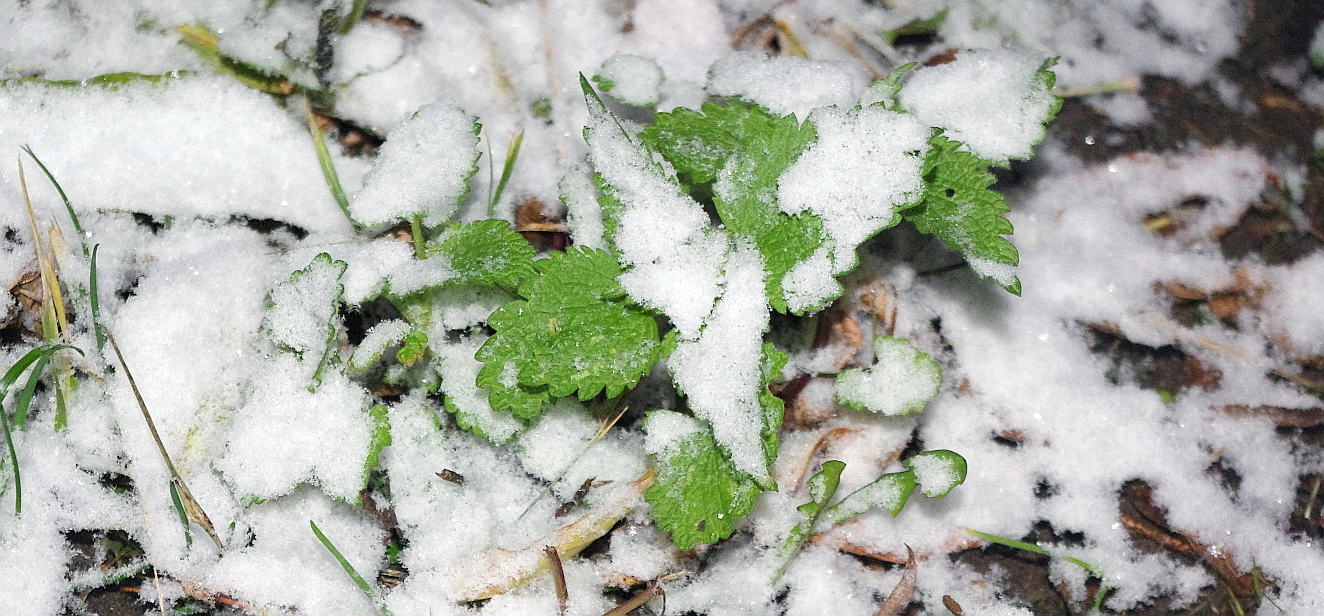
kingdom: Plantae
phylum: Tracheophyta
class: Magnoliopsida
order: Lamiales
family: Lamiaceae
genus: Lamium
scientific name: Lamium album
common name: White dead-nettle
